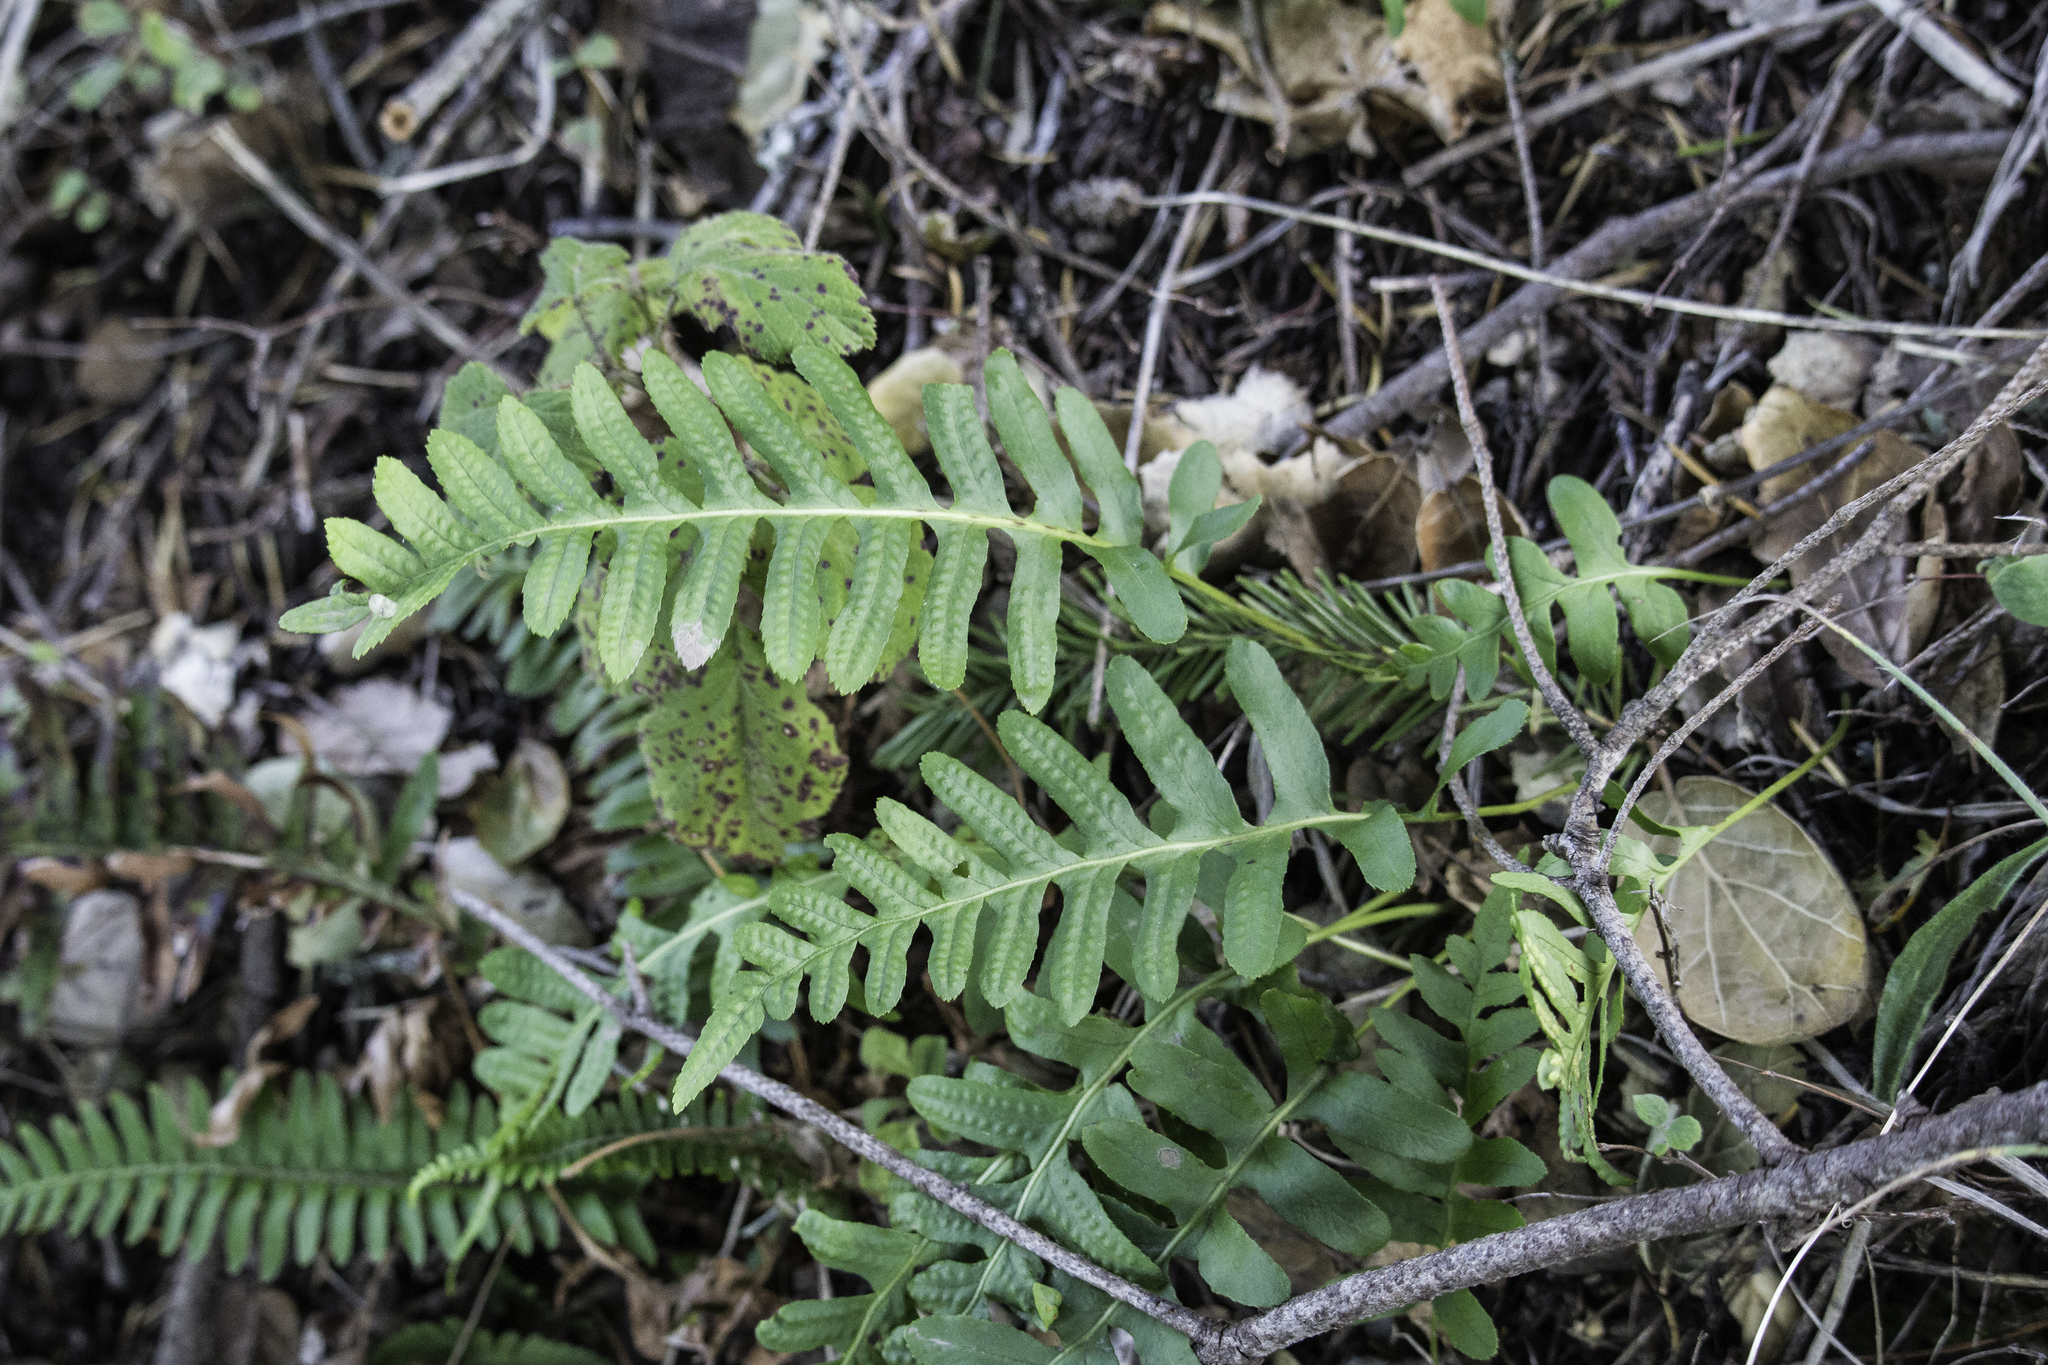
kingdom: Plantae
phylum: Tracheophyta
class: Polypodiopsida
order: Polypodiales
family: Polypodiaceae
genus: Polypodium
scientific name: Polypodium californicum
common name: California polypody
